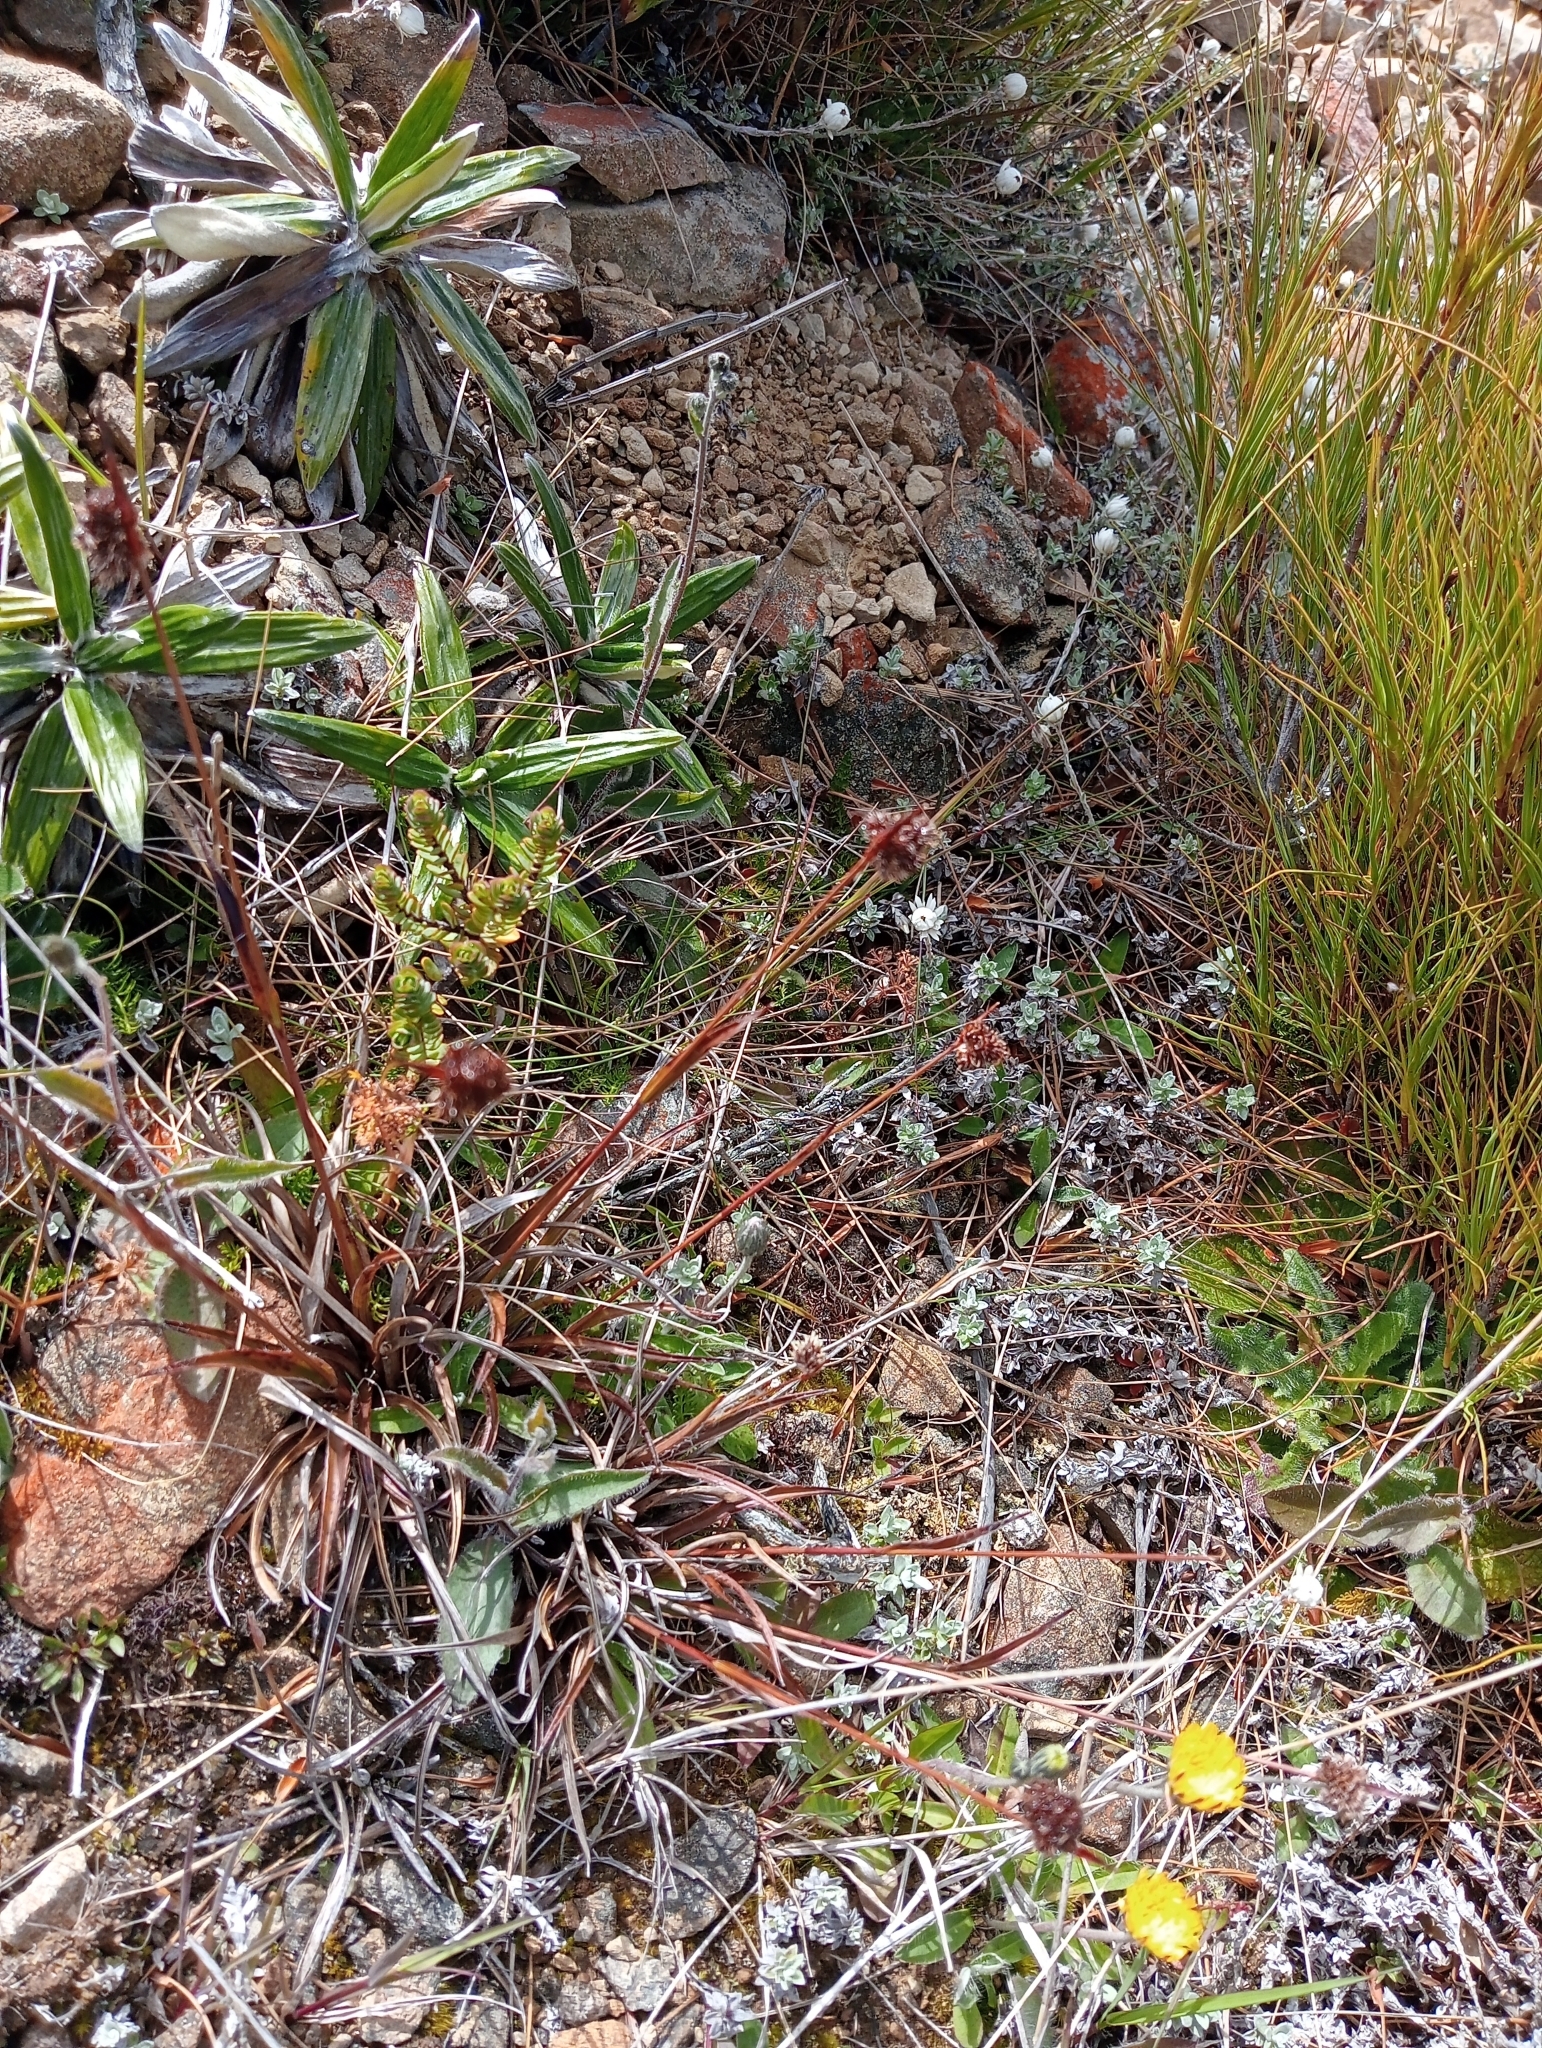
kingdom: Plantae
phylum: Tracheophyta
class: Liliopsida
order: Poales
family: Juncaceae
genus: Luzula
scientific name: Luzula rufa
